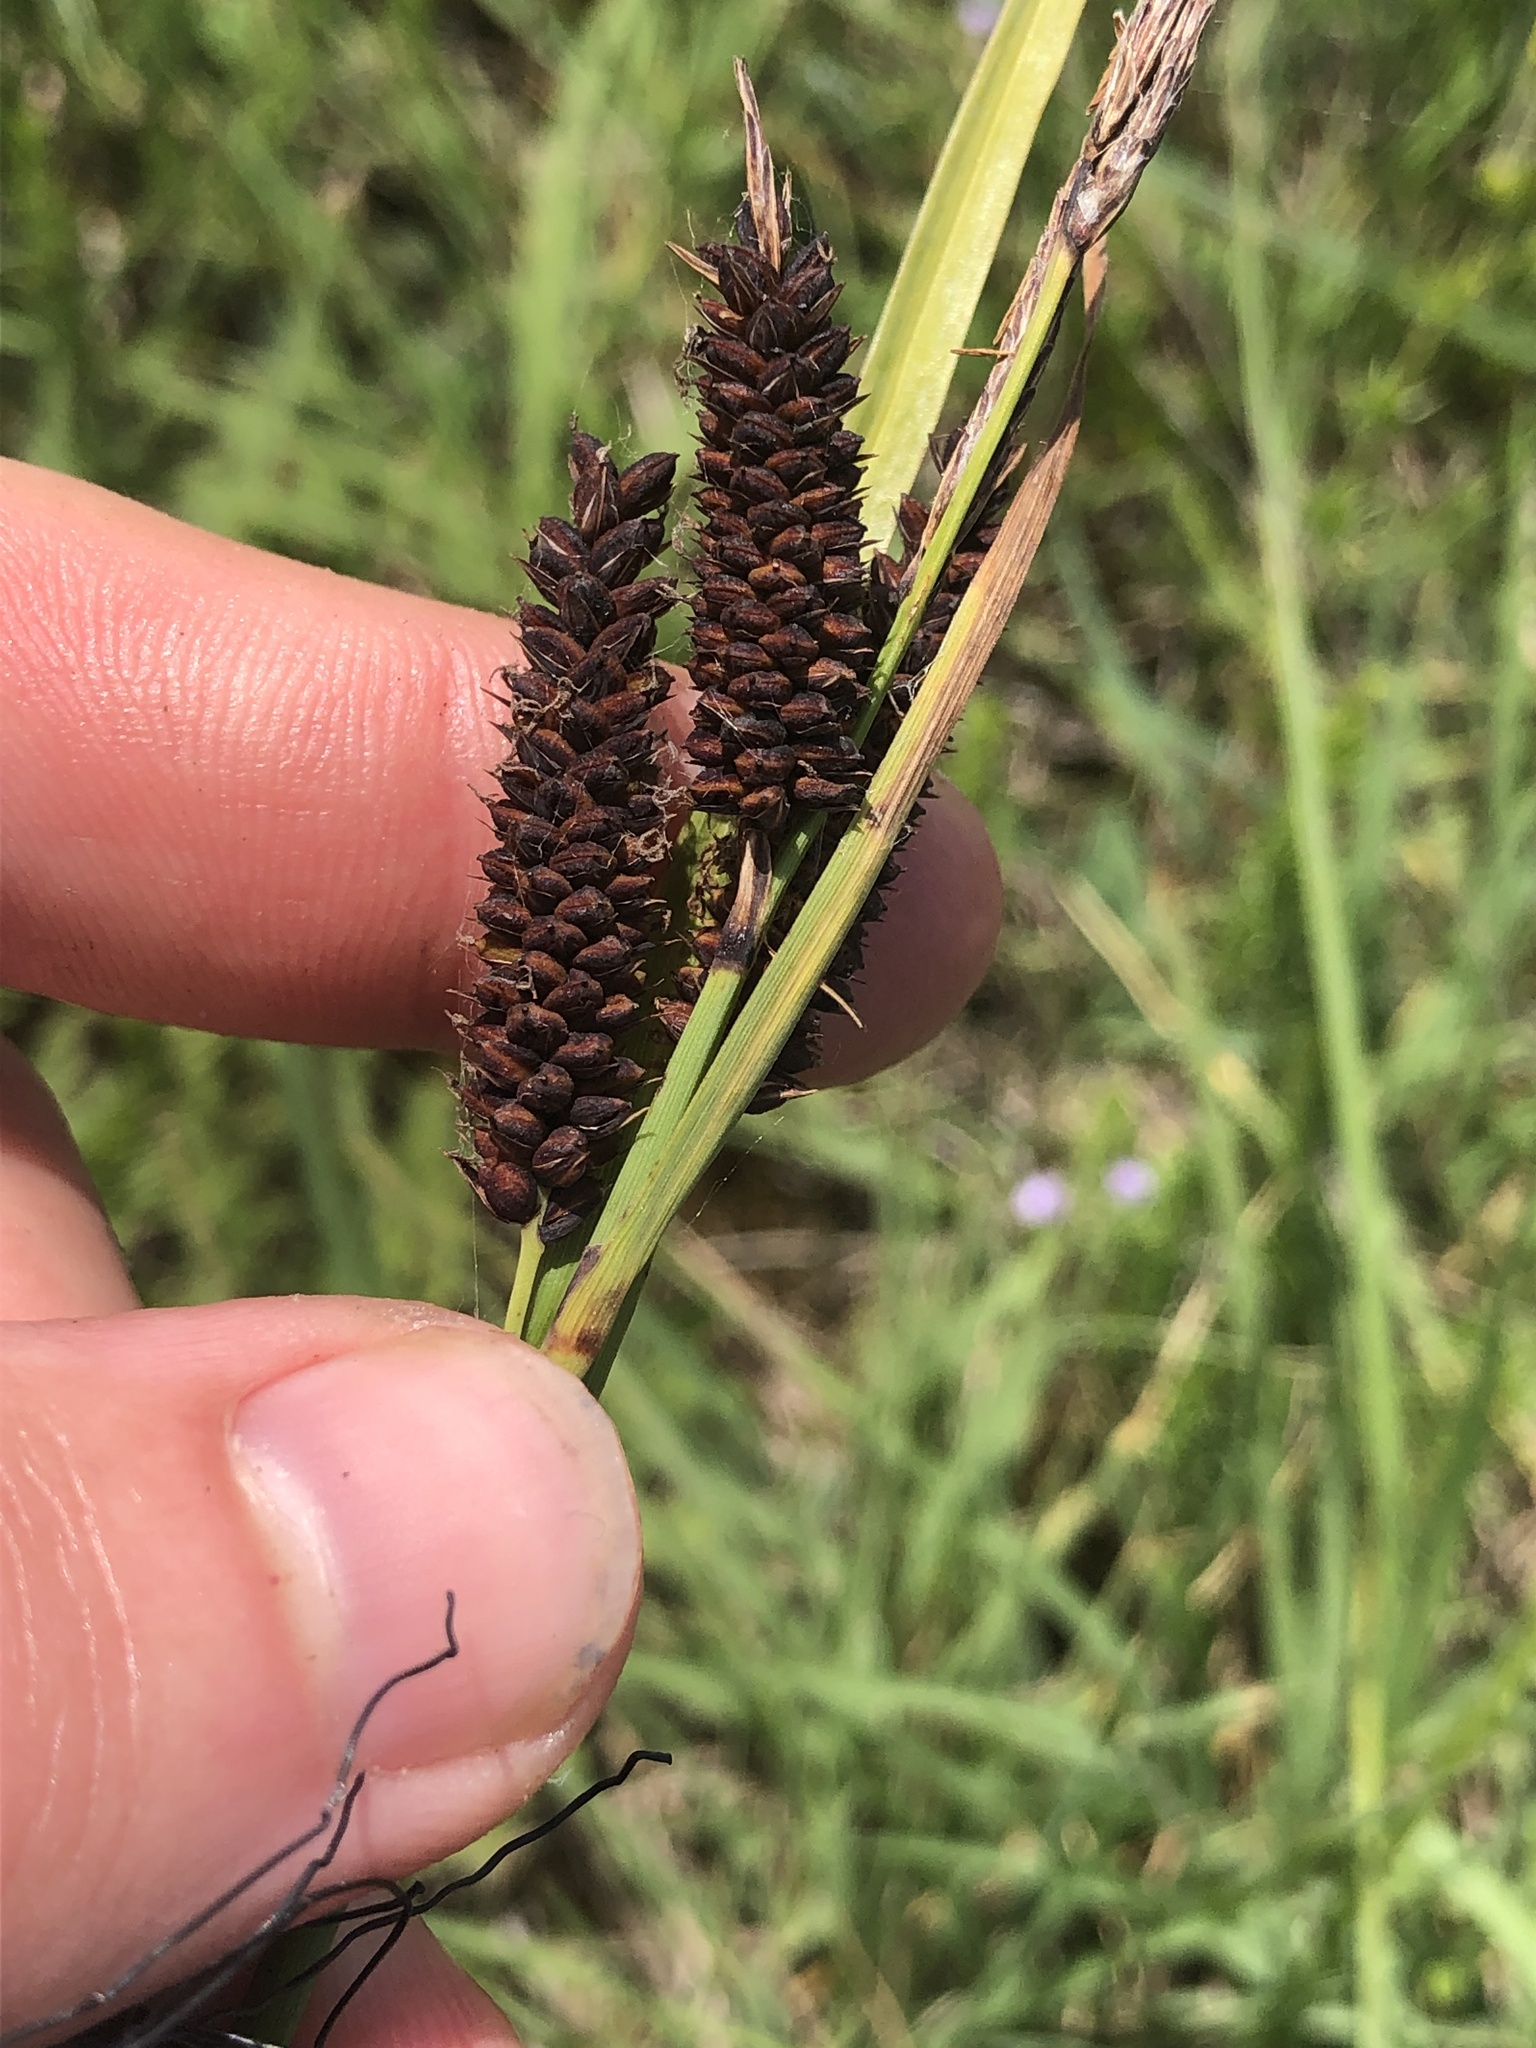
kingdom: Plantae
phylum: Tracheophyta
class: Liliopsida
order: Poales
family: Cyperaceae
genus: Carex
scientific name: Carex flacca
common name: Glaucous sedge
